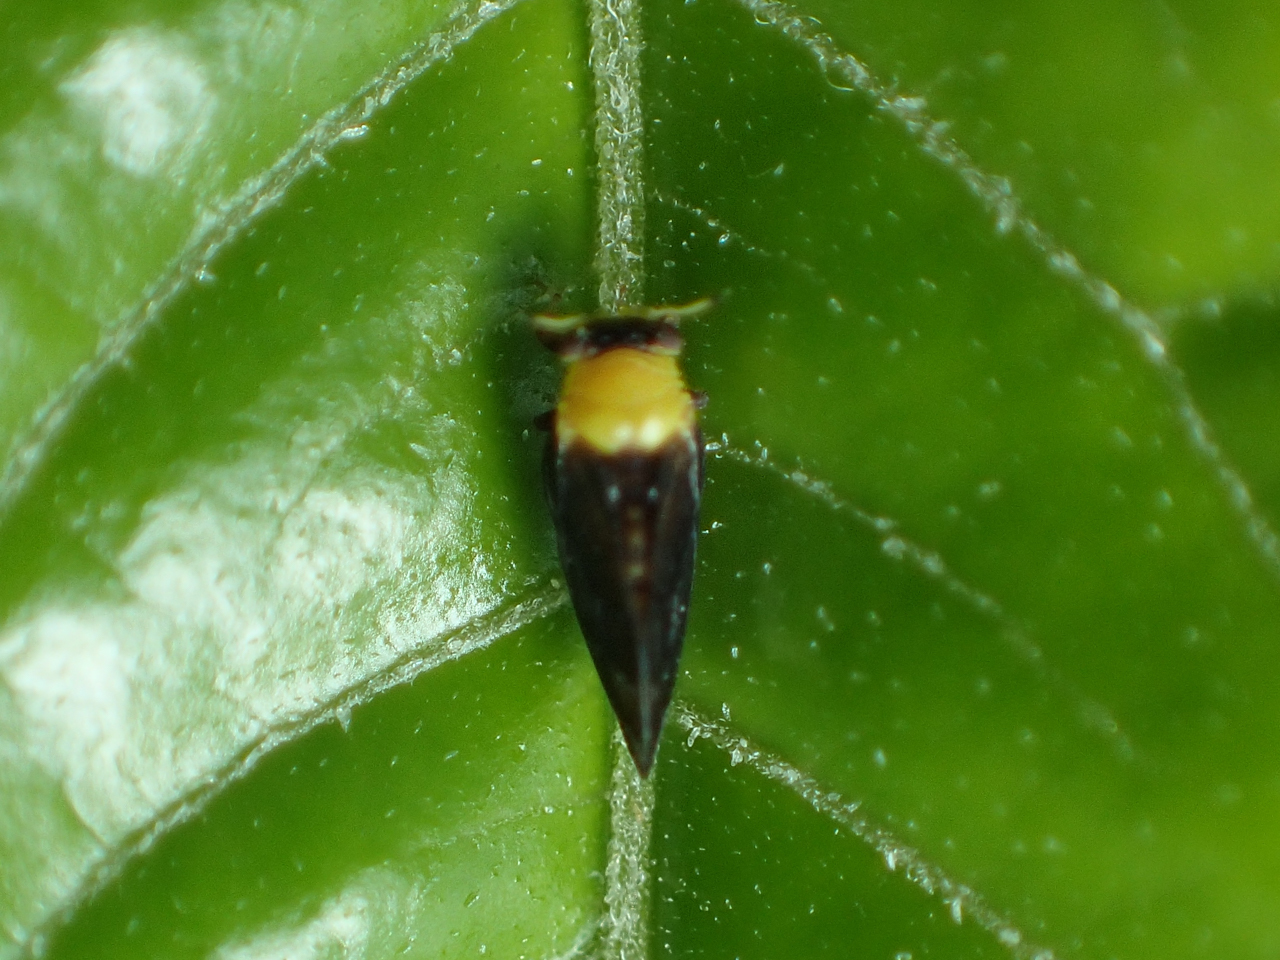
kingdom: Animalia
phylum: Arthropoda
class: Insecta
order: Hemiptera
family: Calophyidae
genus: Calophya
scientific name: Calophya nigripennis
